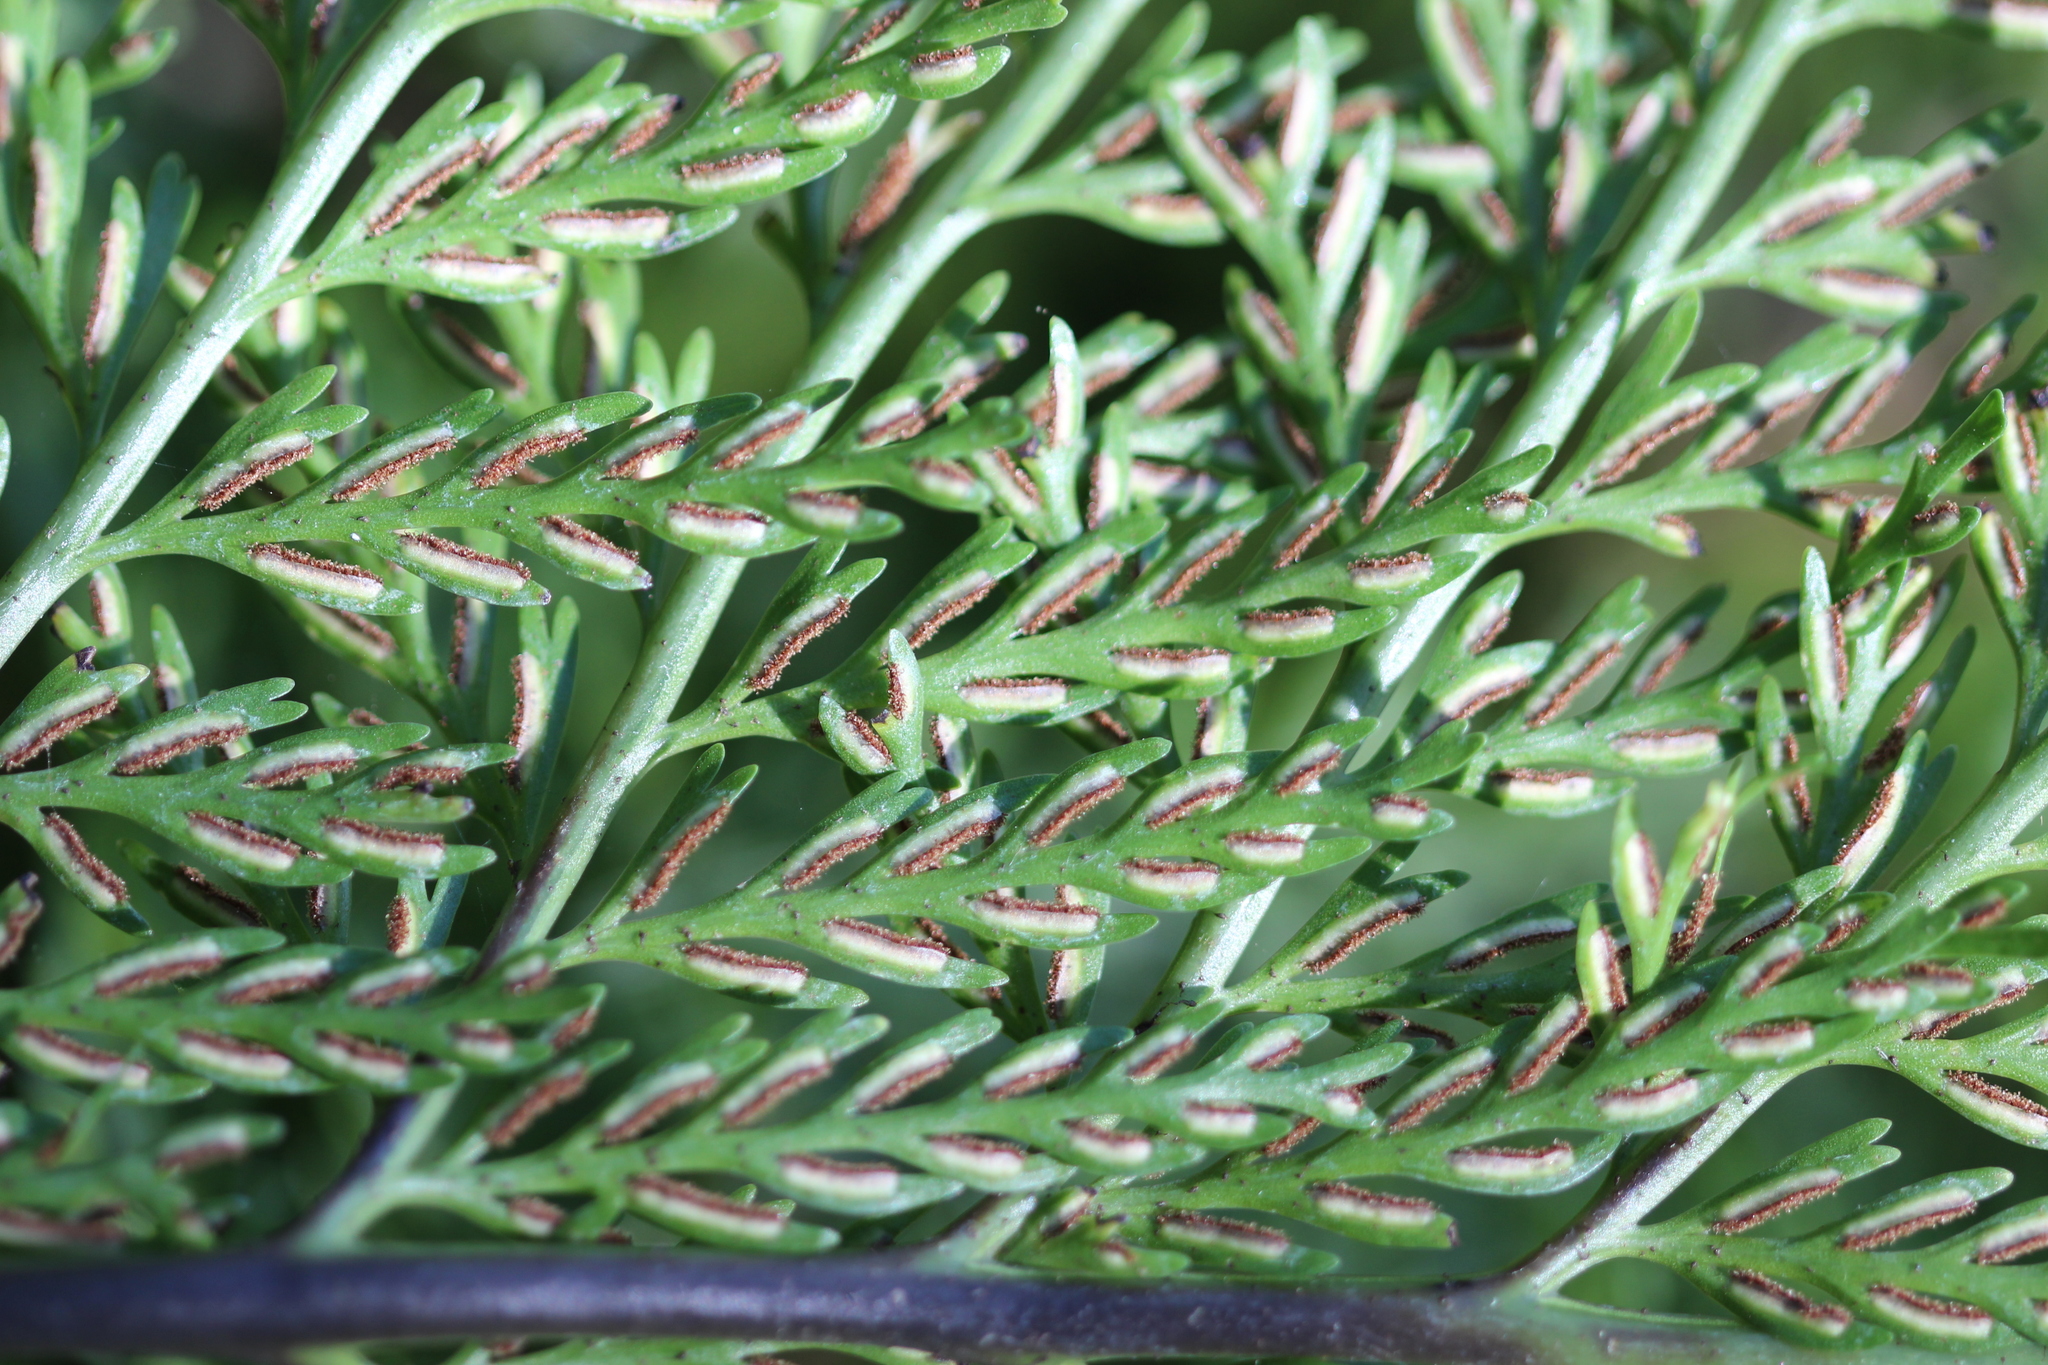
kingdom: Plantae
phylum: Tracheophyta
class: Polypodiopsida
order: Polypodiales
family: Aspleniaceae
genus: Asplenium
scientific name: Asplenium lucrosum
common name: False hen-and-chickens fern
